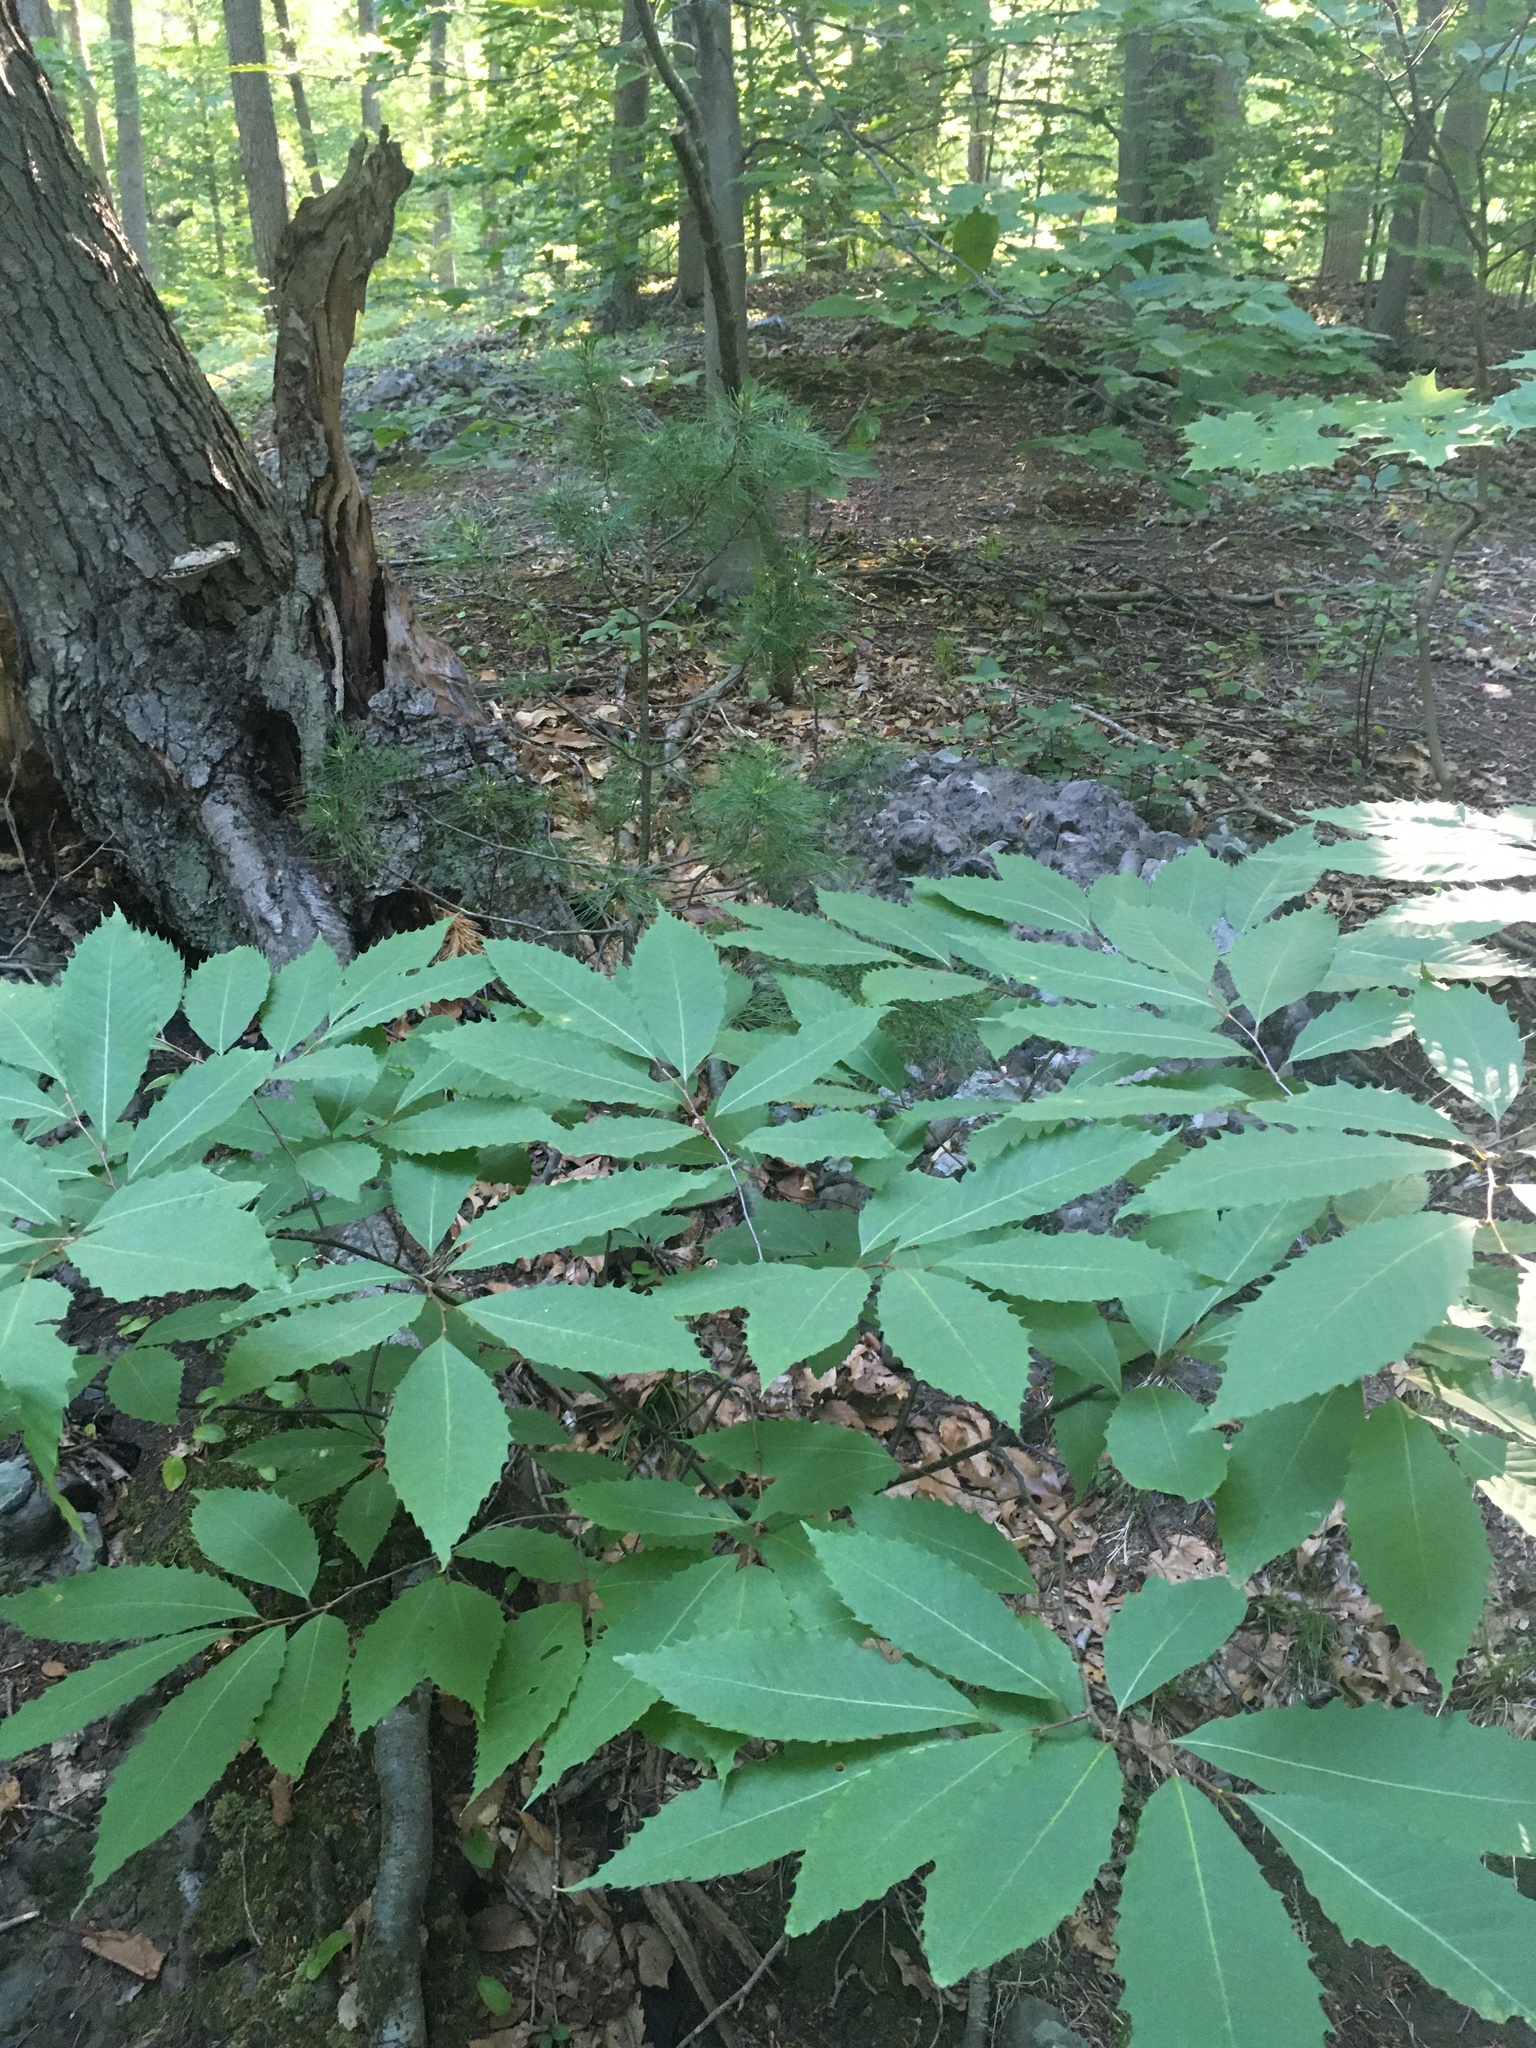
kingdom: Plantae
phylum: Tracheophyta
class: Magnoliopsida
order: Fagales
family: Fagaceae
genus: Castanea
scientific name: Castanea dentata
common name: American chestnut
